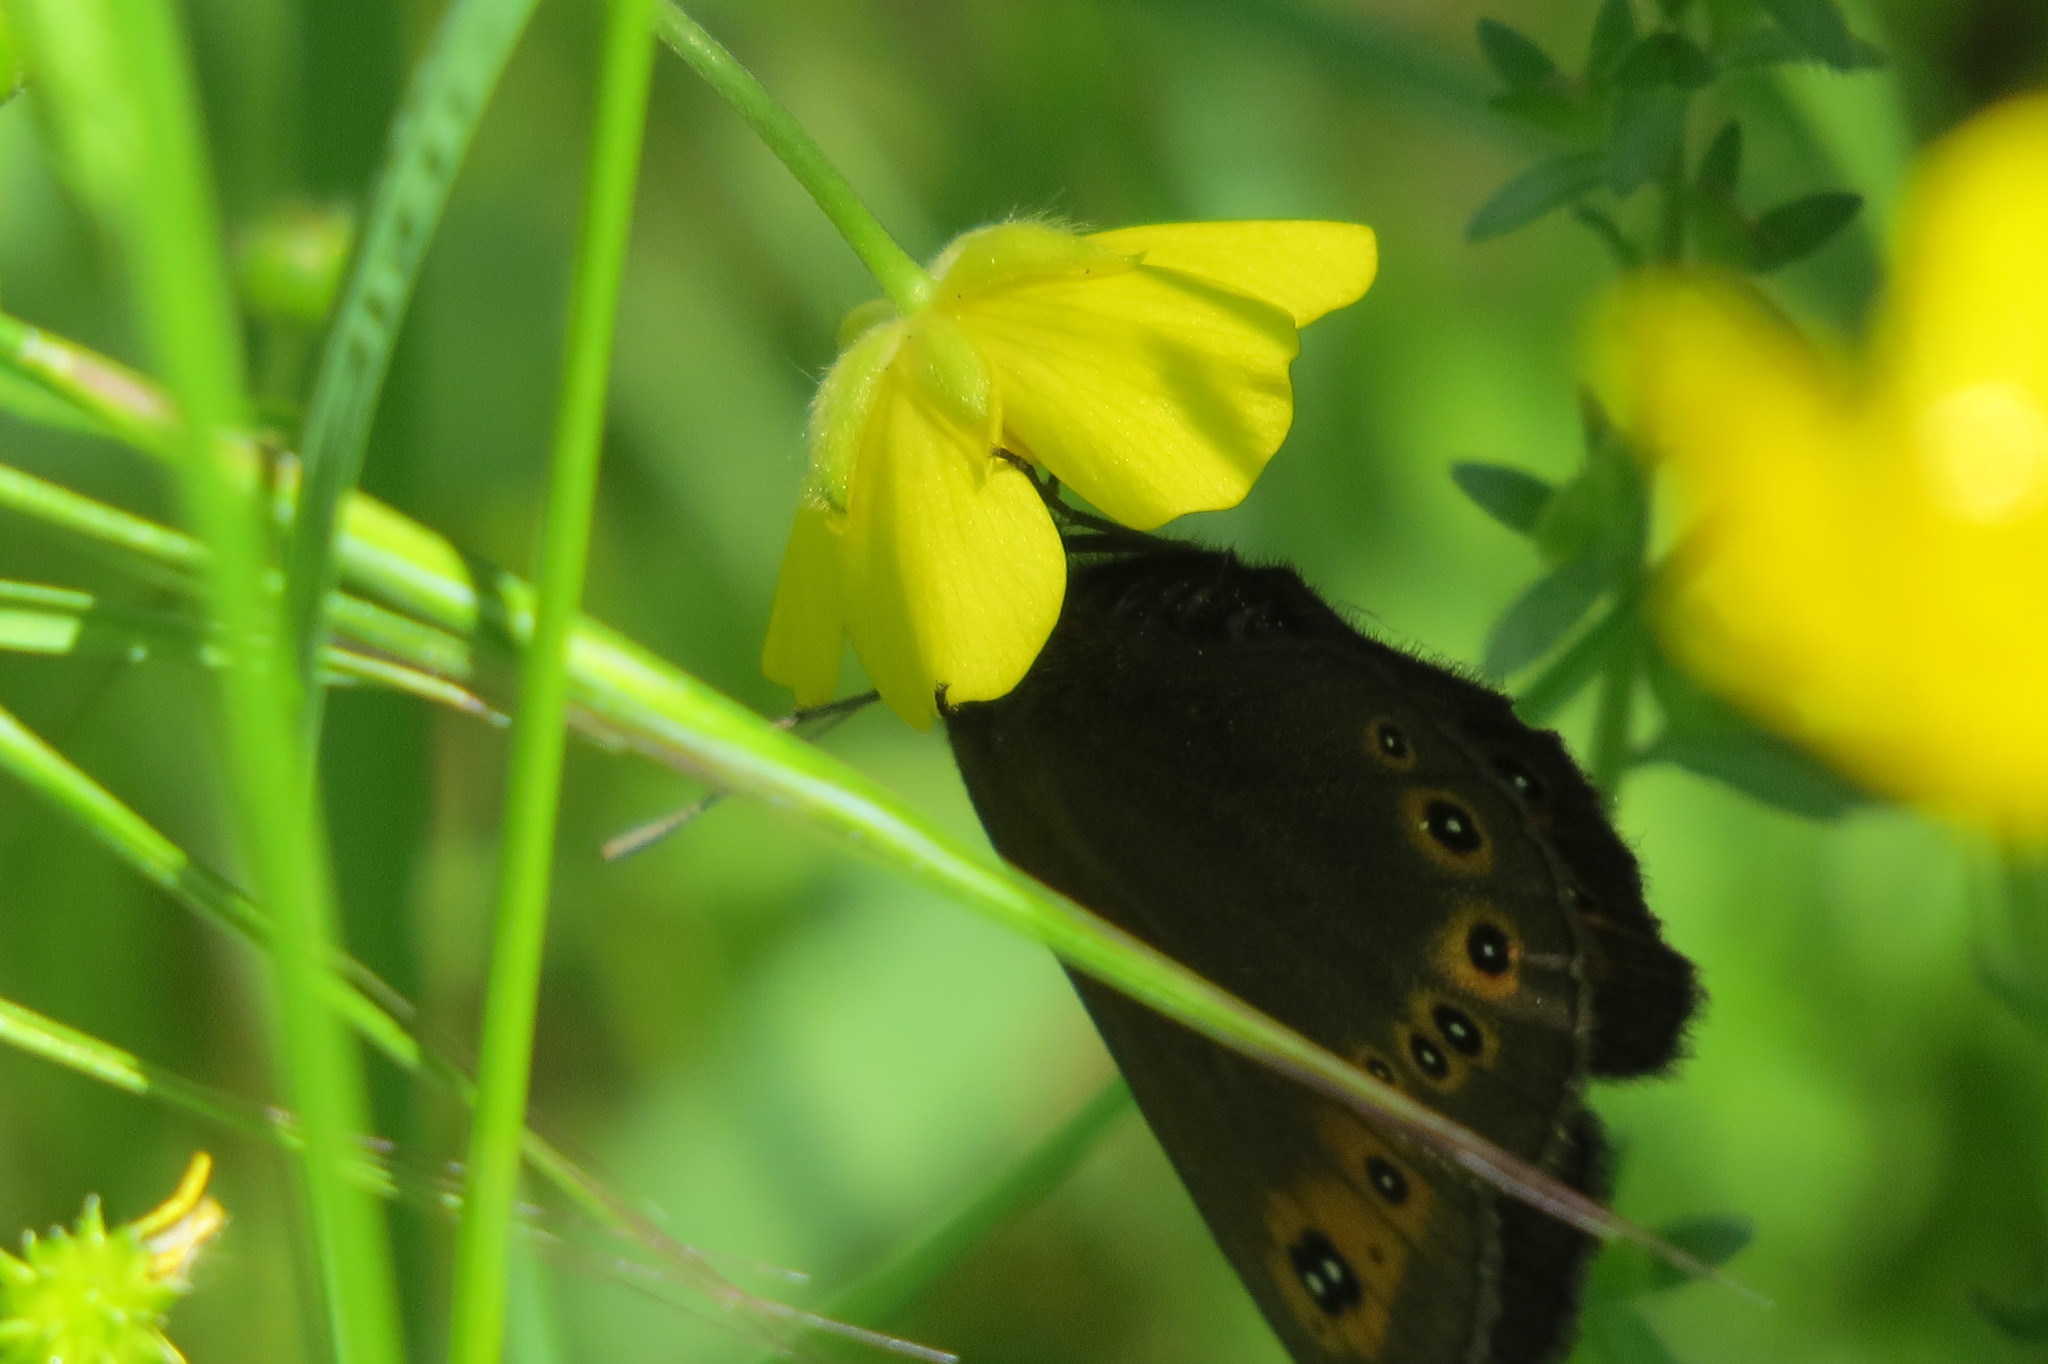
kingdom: Animalia
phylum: Arthropoda
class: Insecta
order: Lepidoptera
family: Nymphalidae
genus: Erebia
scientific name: Erebia medusa
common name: Woodland ringlet
